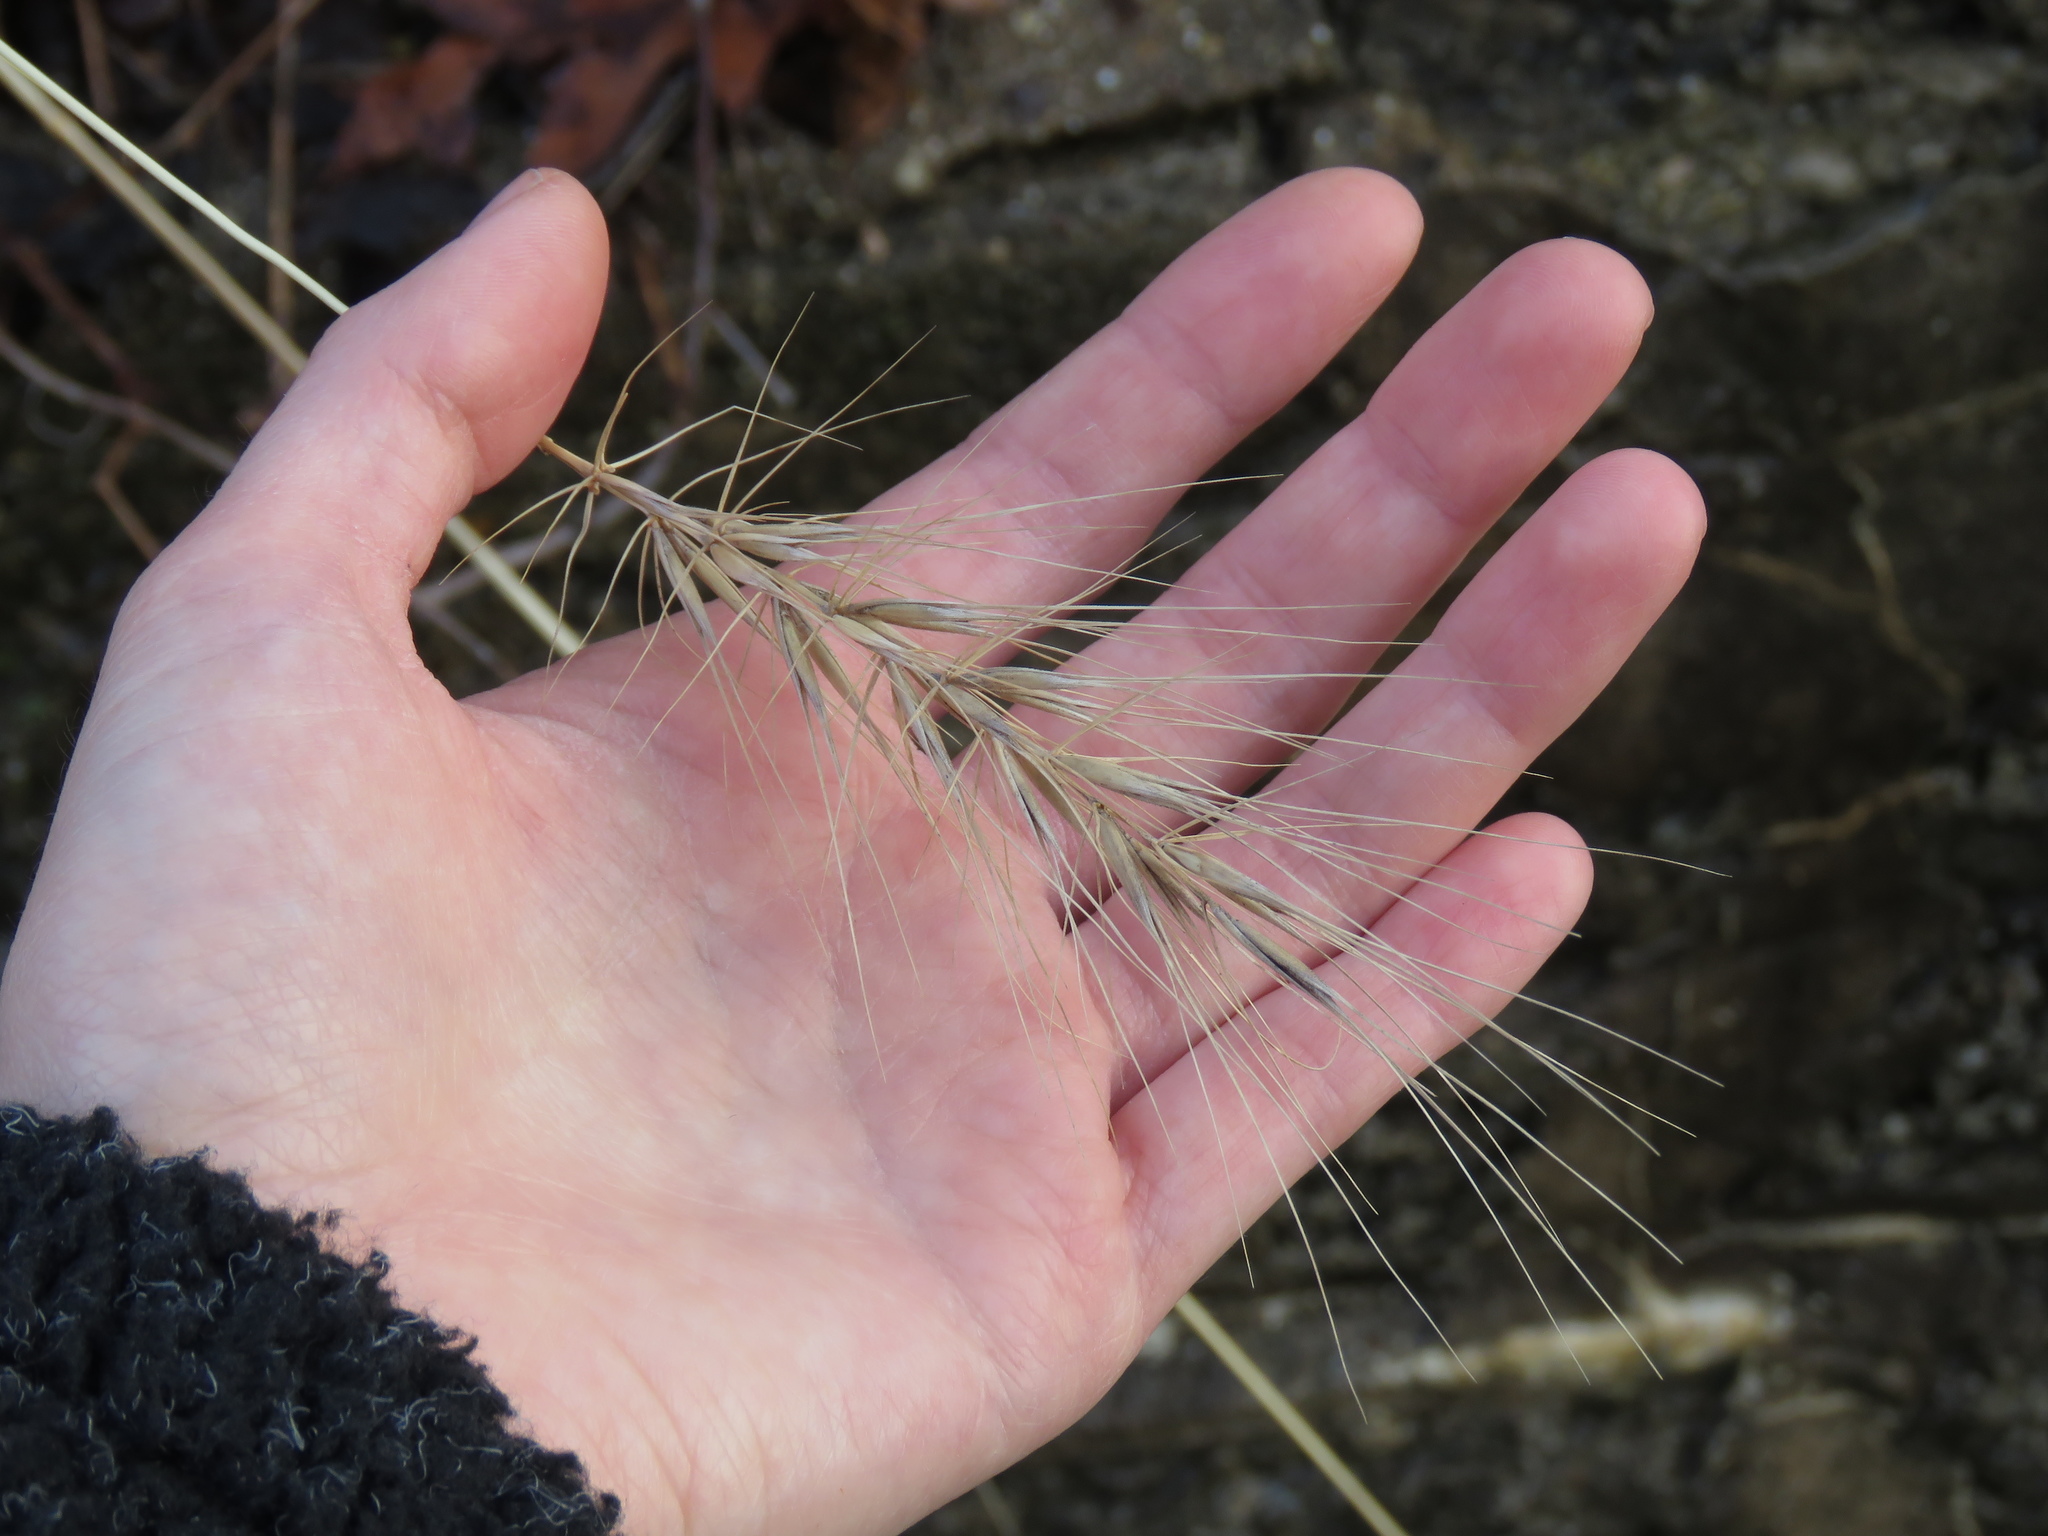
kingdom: Plantae
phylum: Tracheophyta
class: Liliopsida
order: Poales
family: Poaceae
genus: Elymus
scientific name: Elymus canadensis
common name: Canada wild rye
